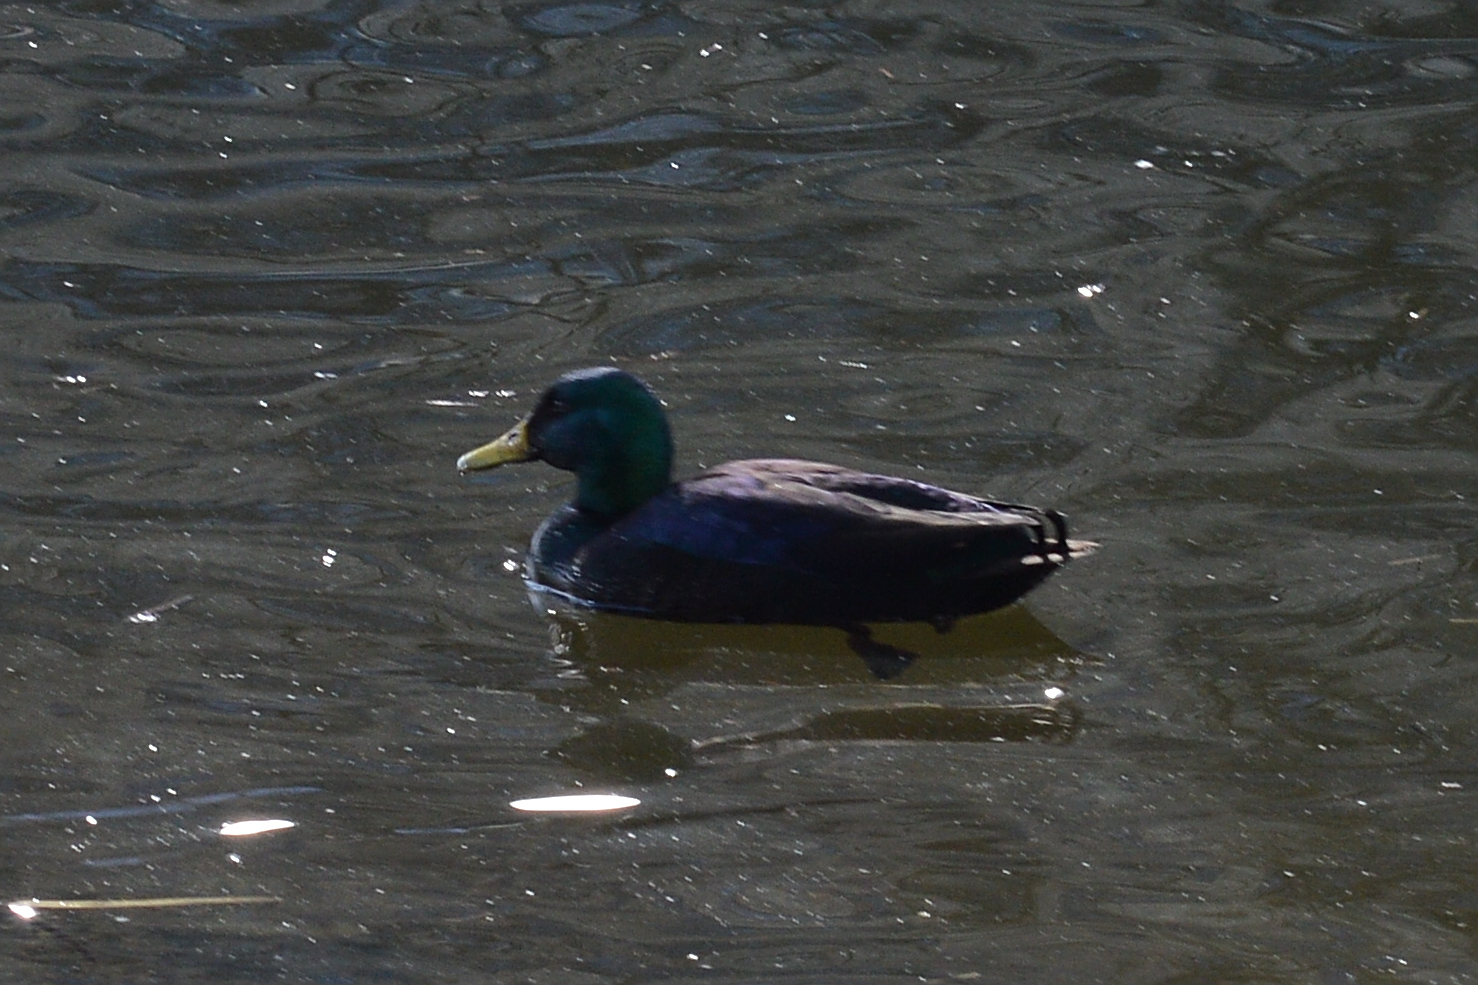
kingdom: Animalia
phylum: Chordata
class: Aves
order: Anseriformes
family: Anatidae
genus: Anas
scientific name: Anas platyrhynchos
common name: Mallard
